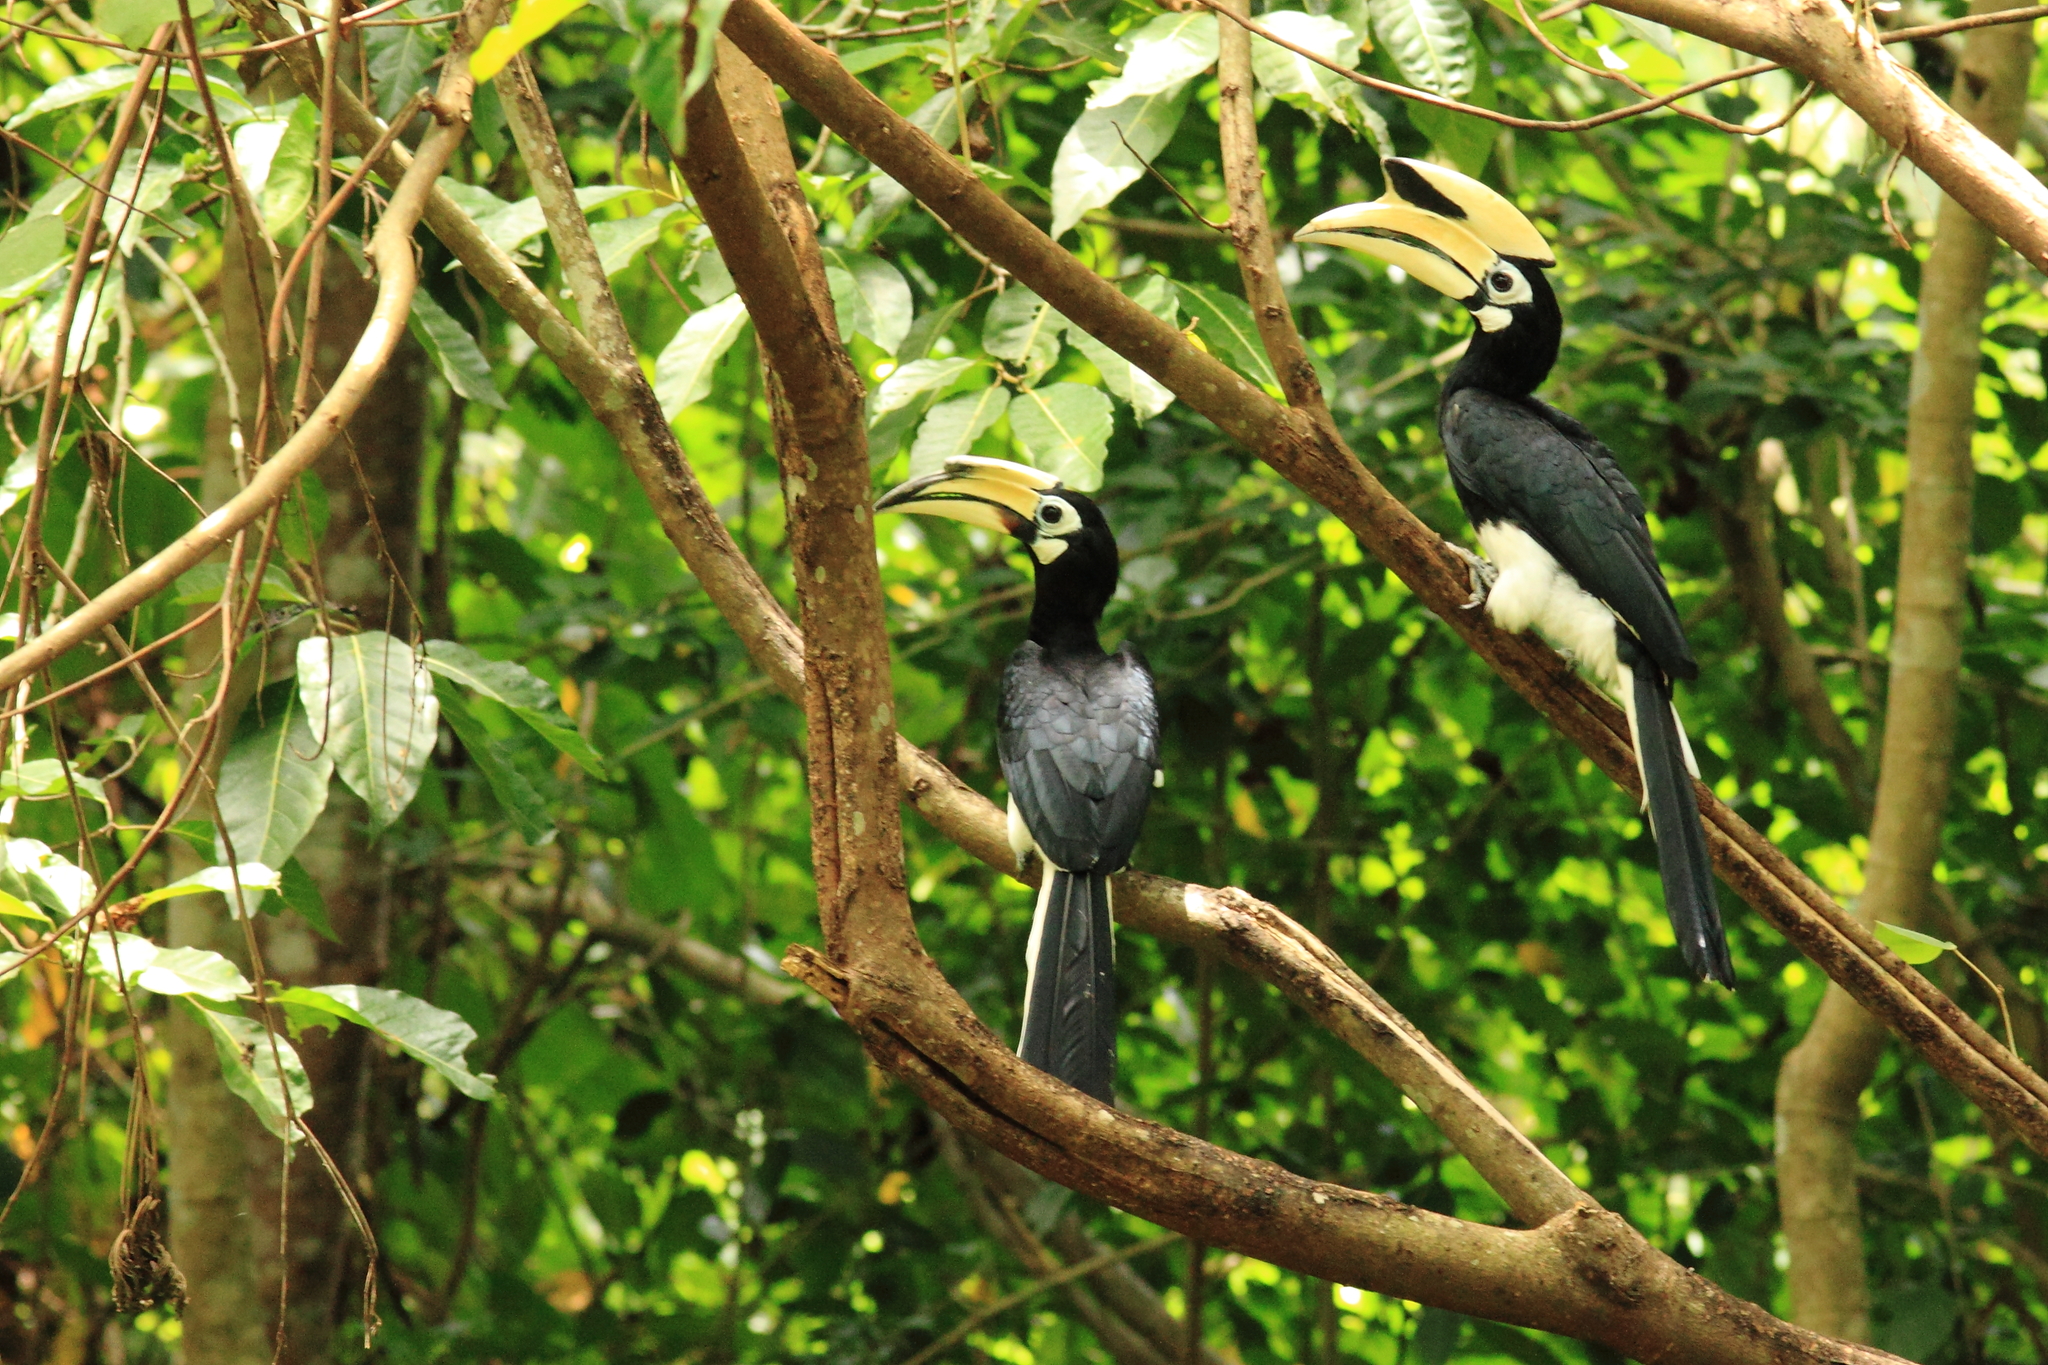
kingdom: Animalia
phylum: Chordata
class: Aves
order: Bucerotiformes
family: Bucerotidae
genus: Anthracoceros
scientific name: Anthracoceros albirostris
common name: Oriental pied-hornbill
